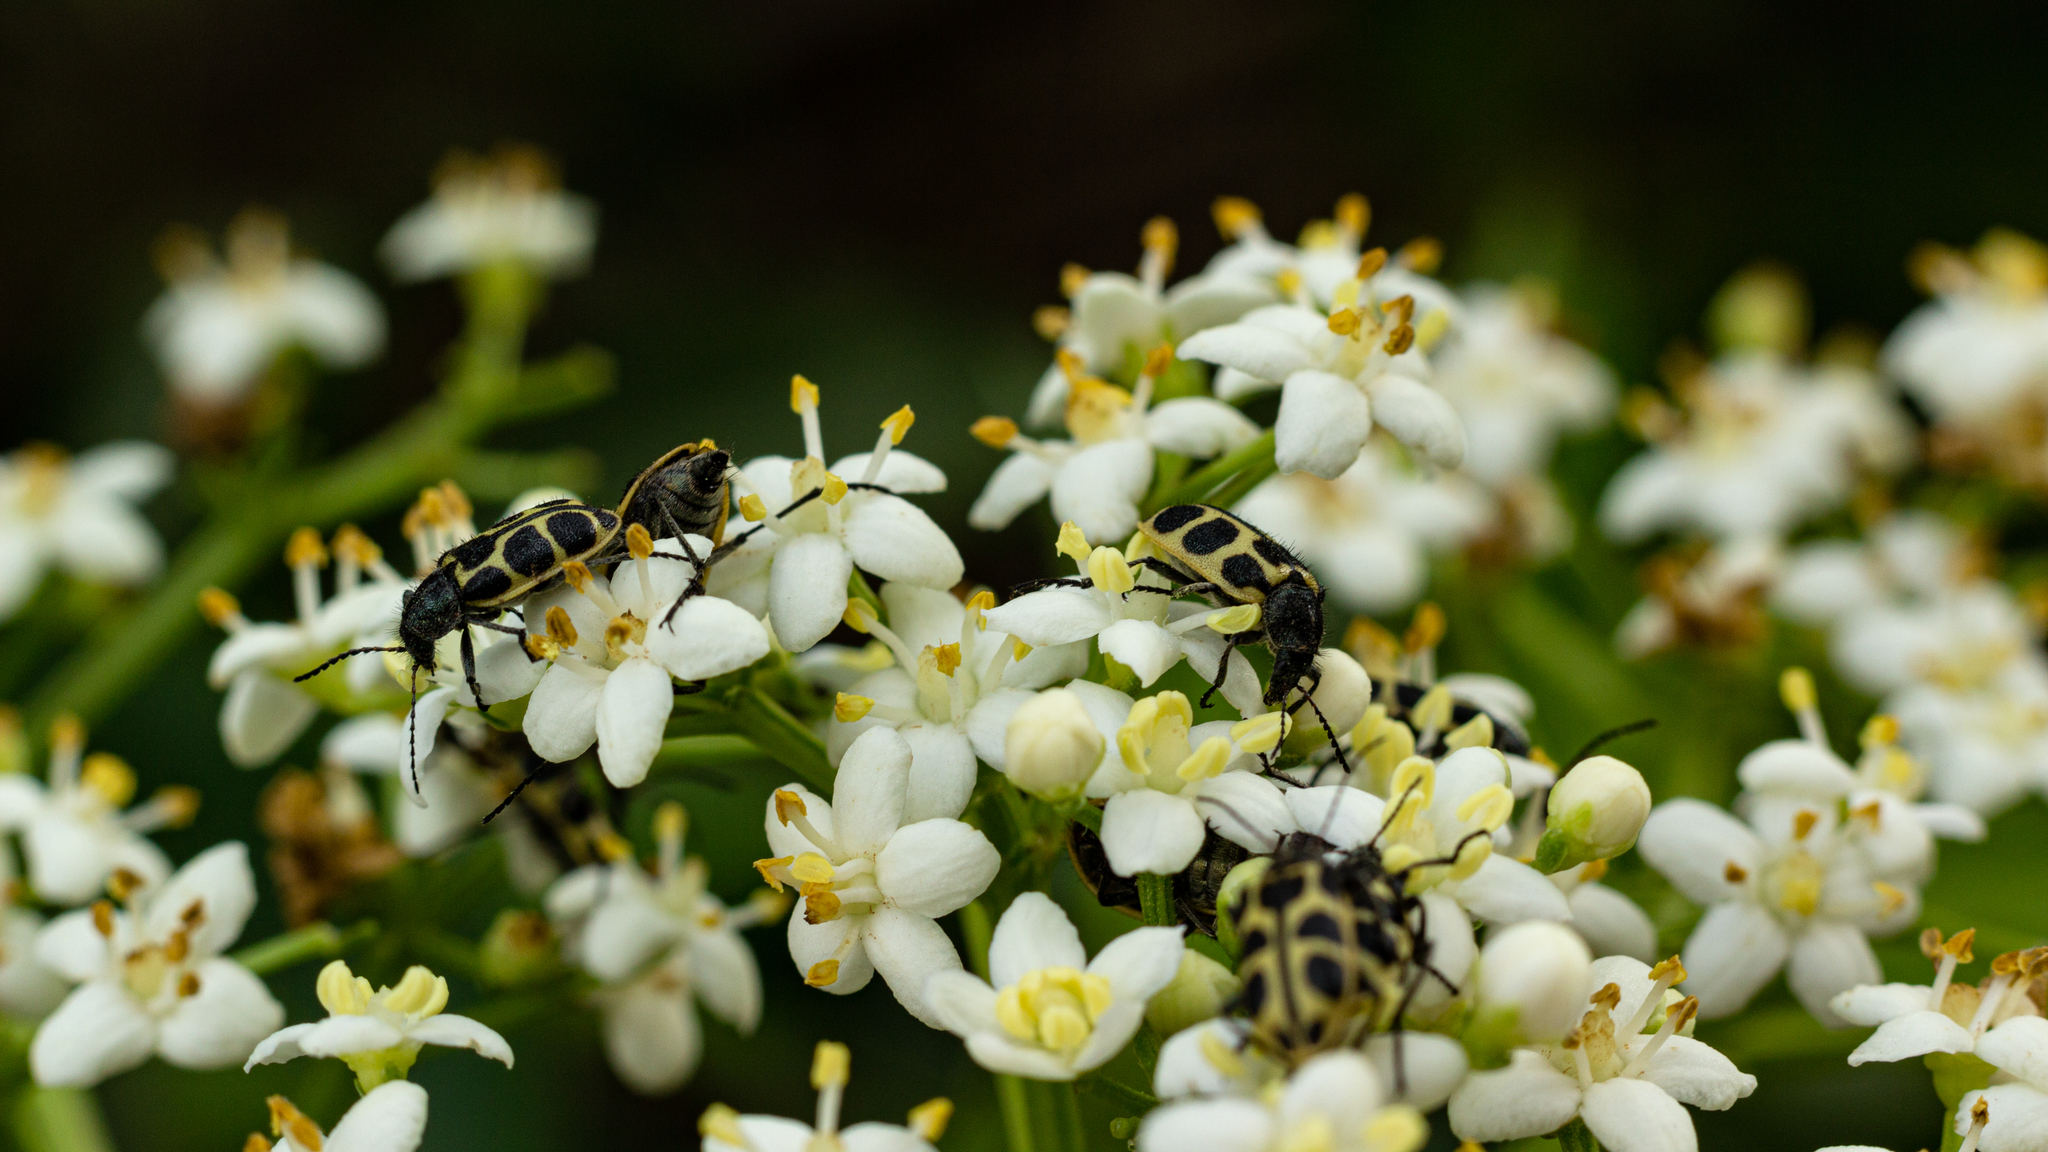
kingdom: Animalia
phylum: Arthropoda
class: Insecta
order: Coleoptera
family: Melyridae
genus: Astylus
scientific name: Astylus
